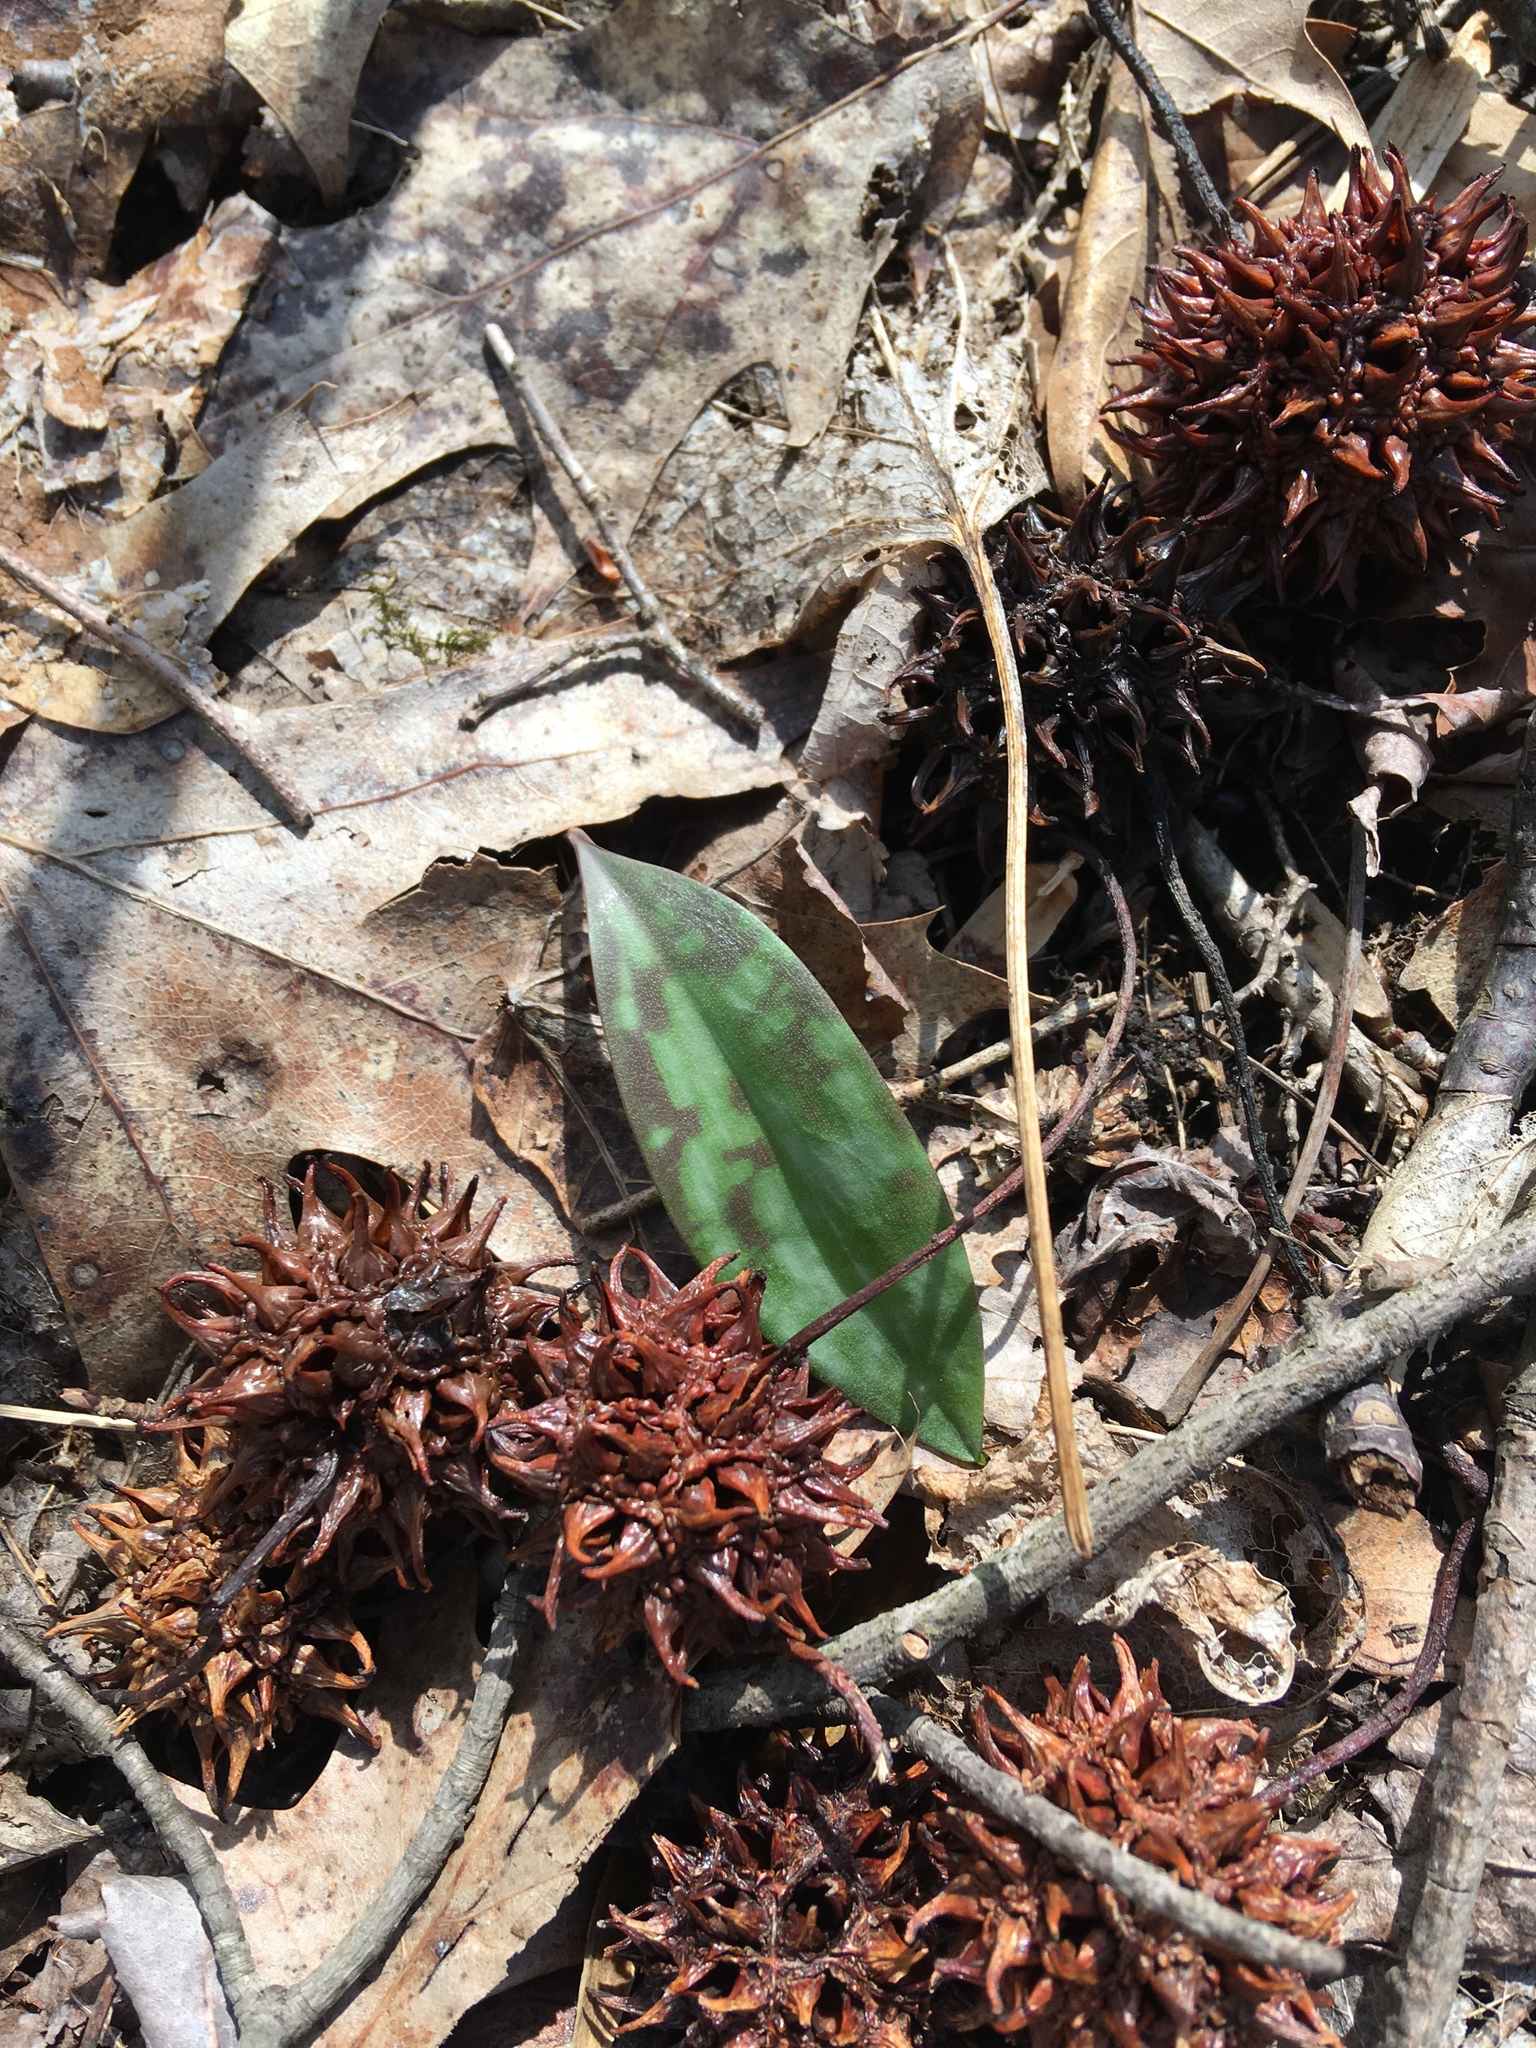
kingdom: Plantae
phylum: Tracheophyta
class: Magnoliopsida
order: Saxifragales
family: Altingiaceae
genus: Liquidambar
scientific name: Liquidambar styraciflua
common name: Sweet gum
